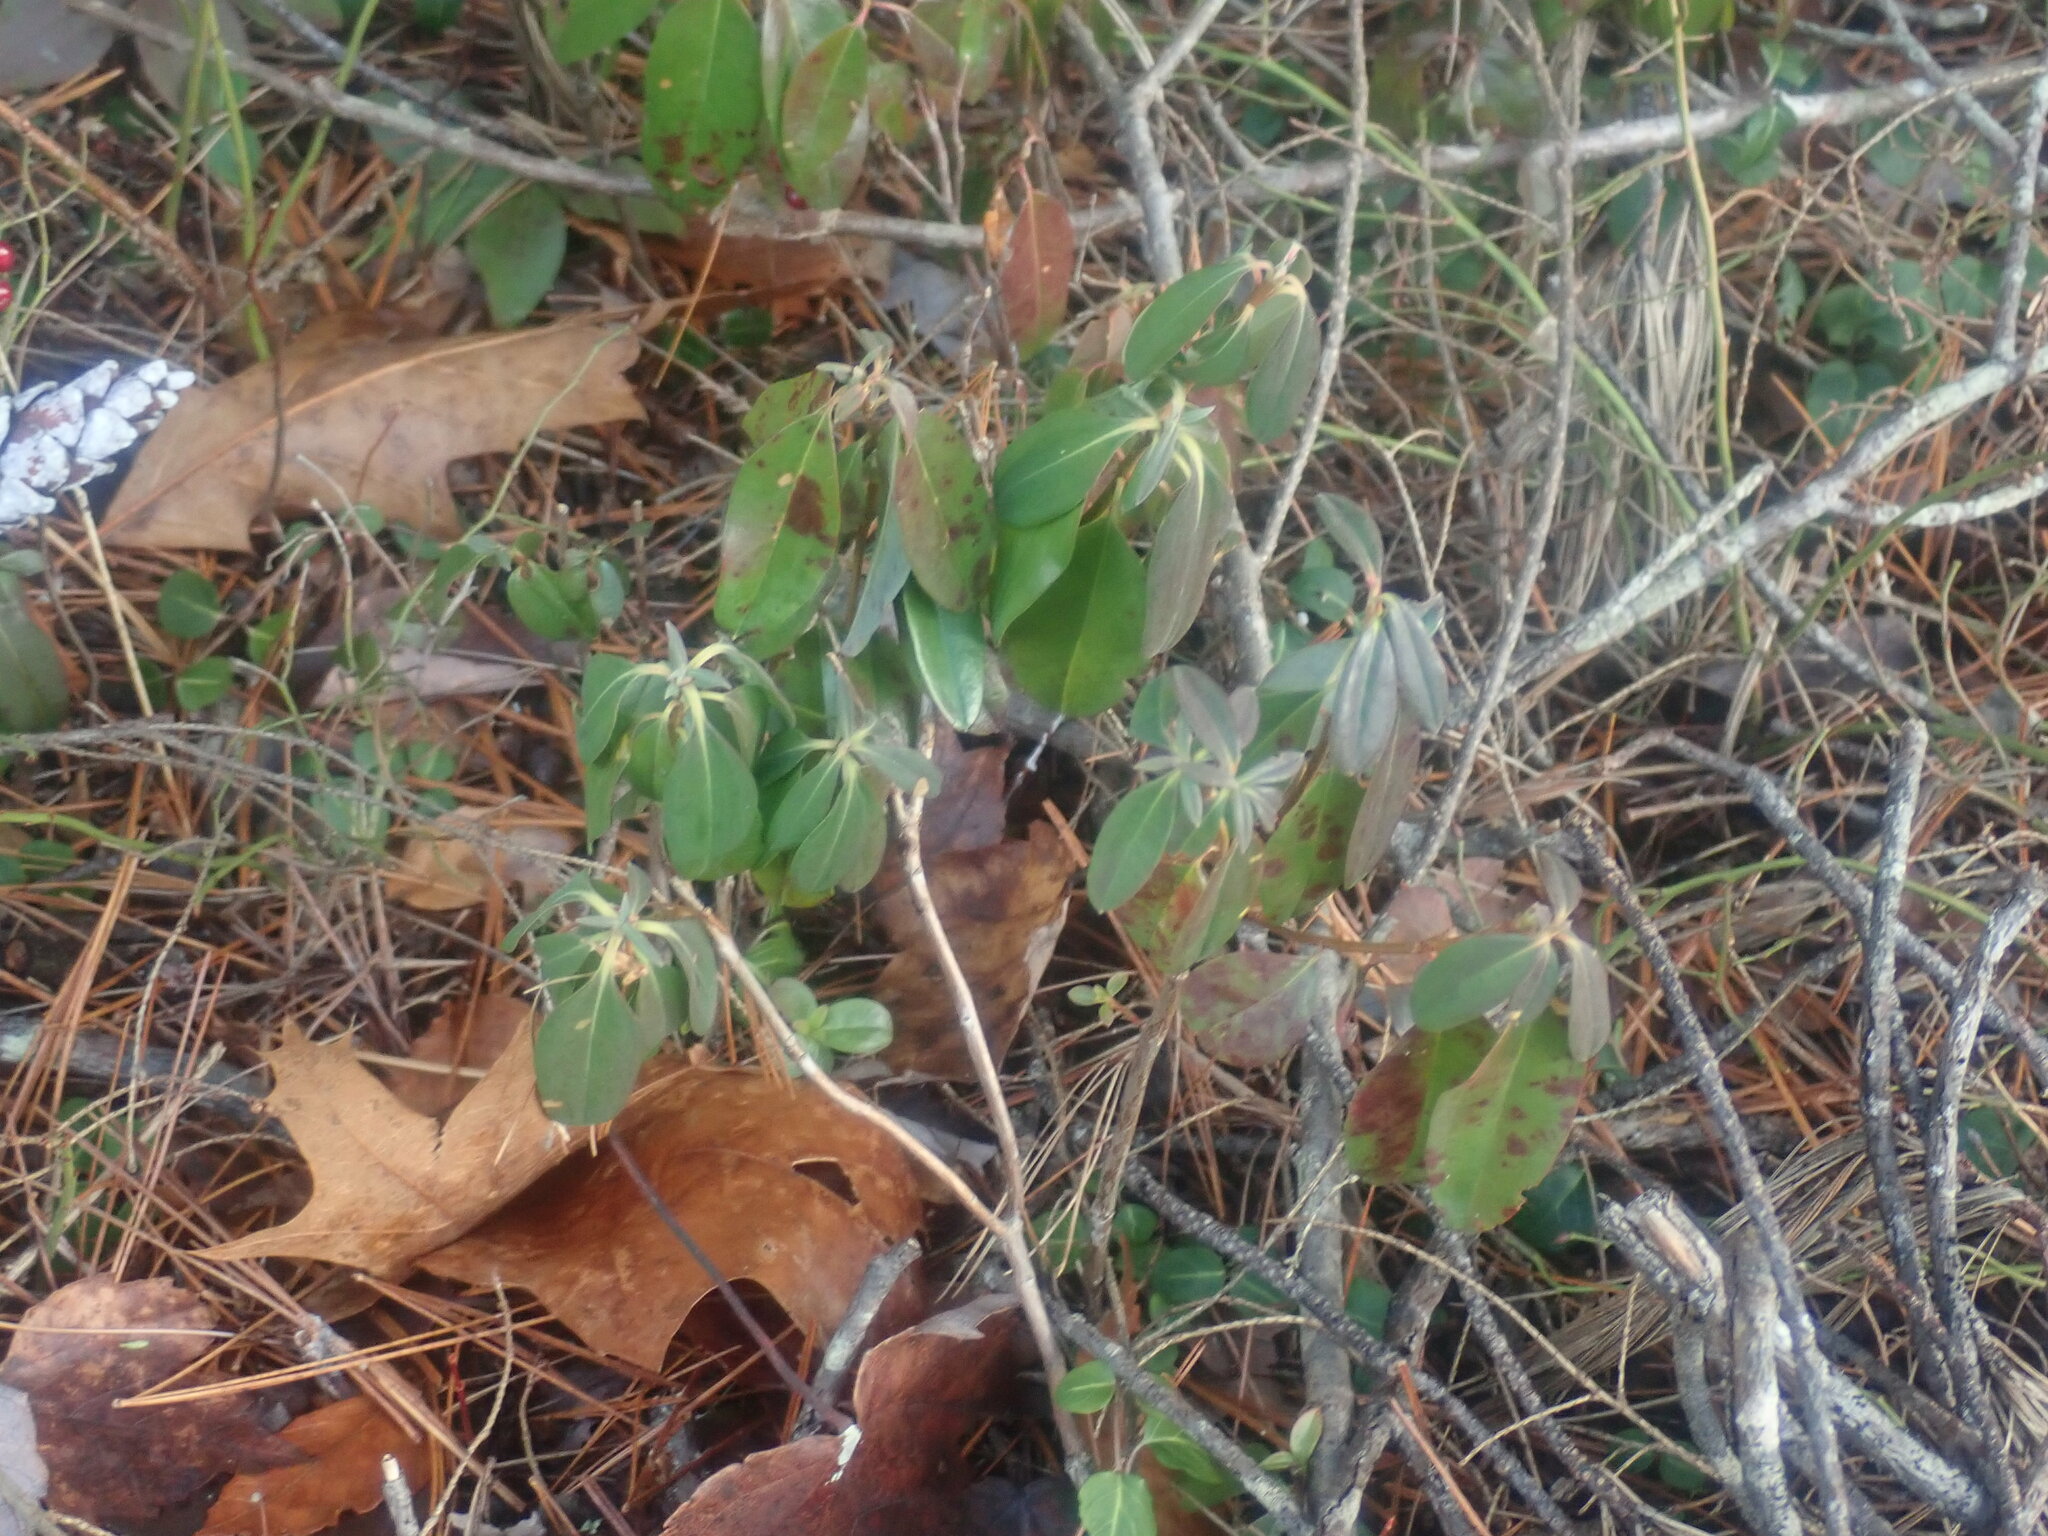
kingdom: Plantae
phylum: Tracheophyta
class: Magnoliopsida
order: Ericales
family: Ericaceae
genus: Kalmia
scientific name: Kalmia angustifolia
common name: Sheep-laurel
